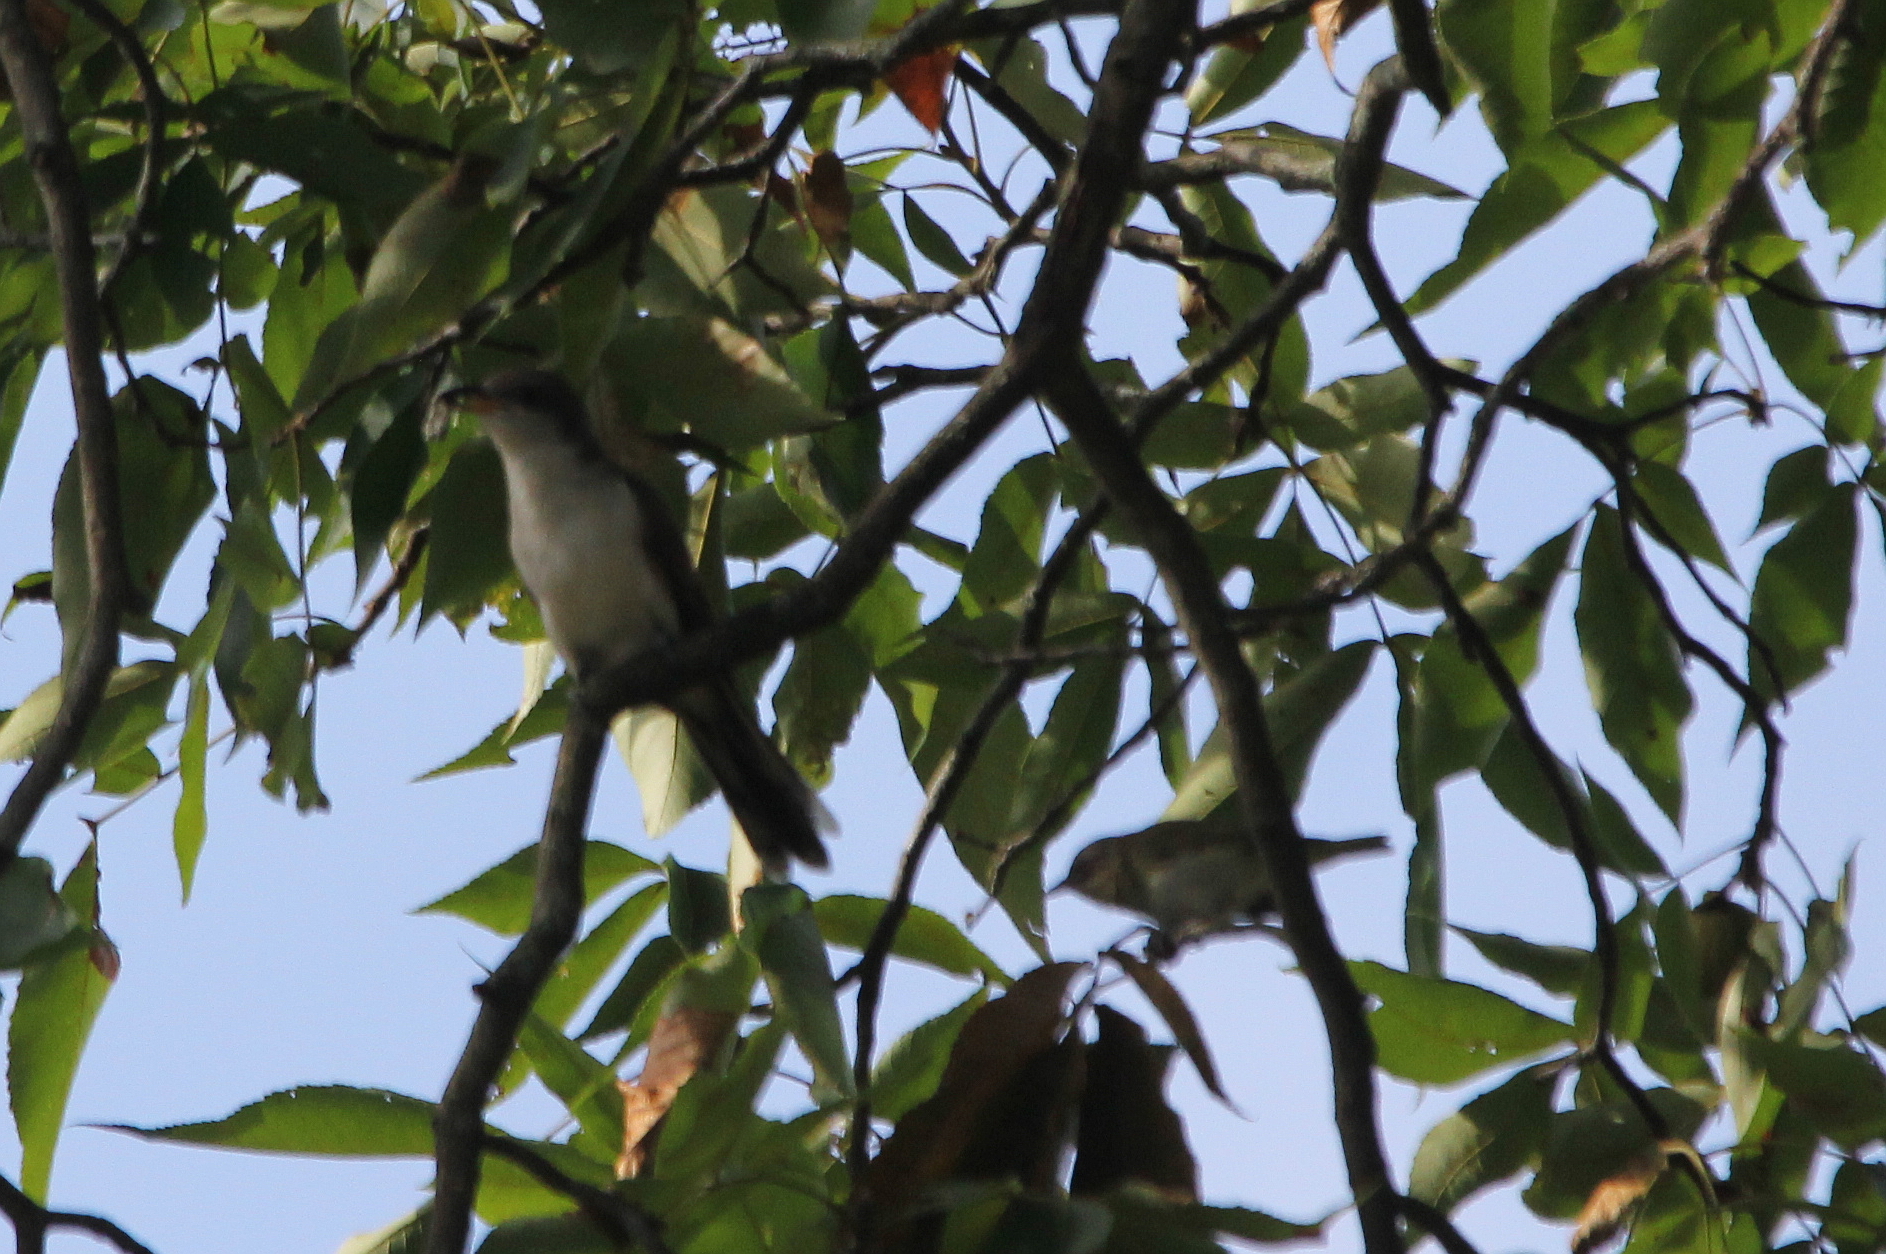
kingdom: Animalia
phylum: Chordata
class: Aves
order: Cuculiformes
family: Cuculidae
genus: Coccyzus
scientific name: Coccyzus americanus
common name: Yellow-billed cuckoo
